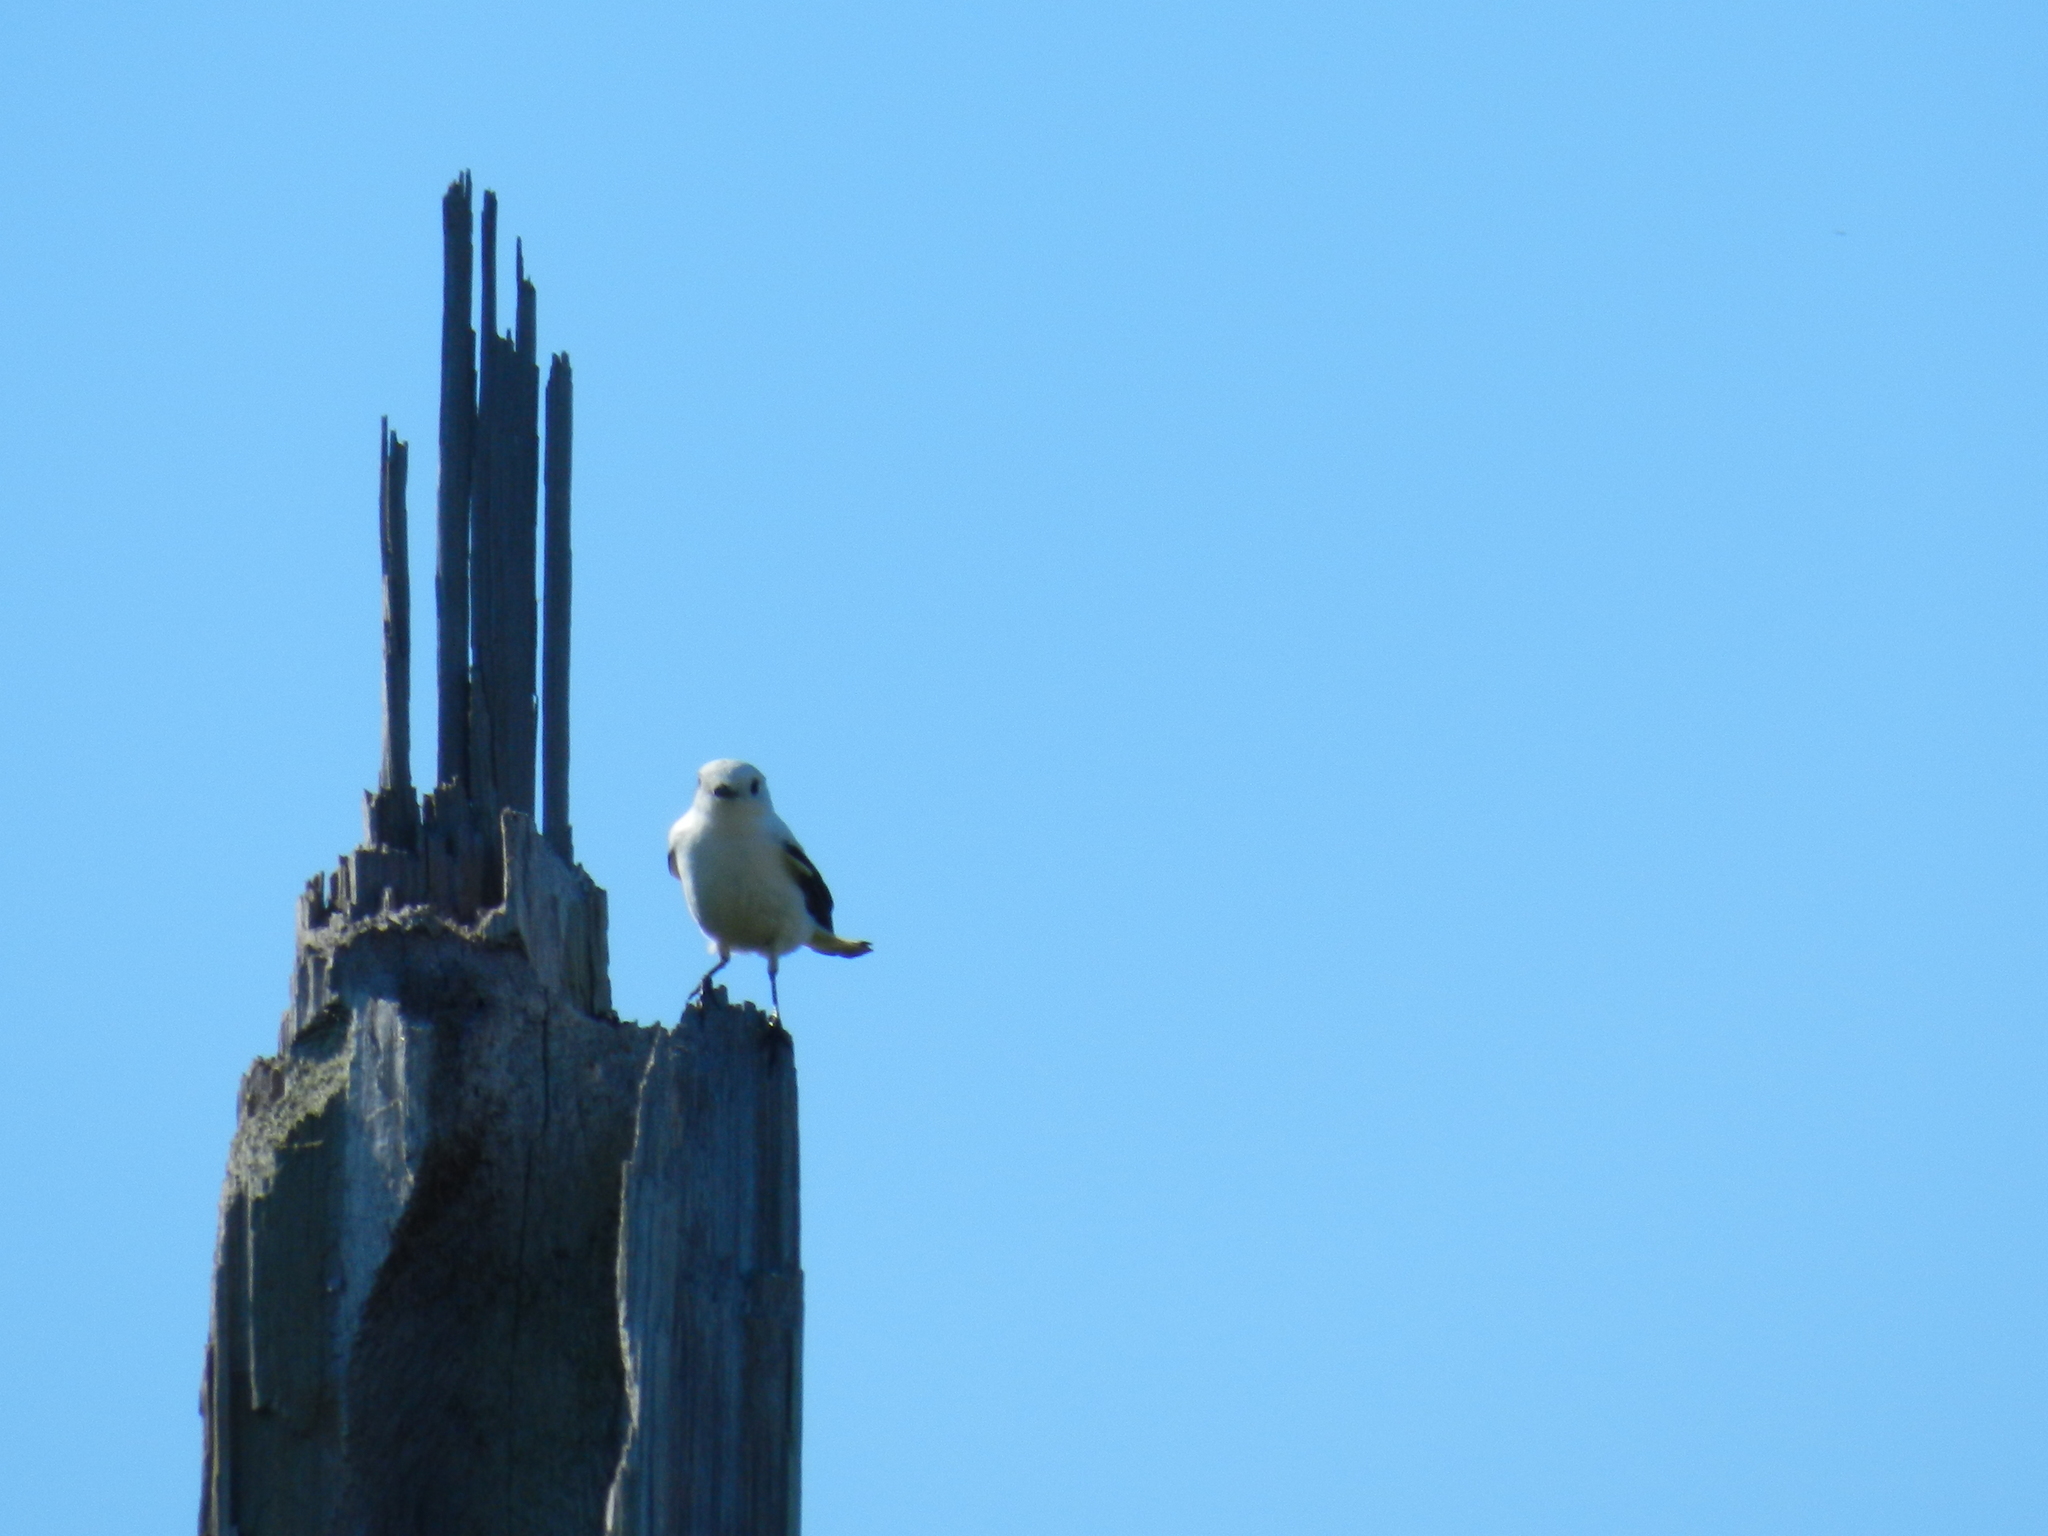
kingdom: Animalia
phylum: Chordata
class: Aves
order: Passeriformes
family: Tyrannidae
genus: Xolmis
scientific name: Xolmis irupero
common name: White monjita
